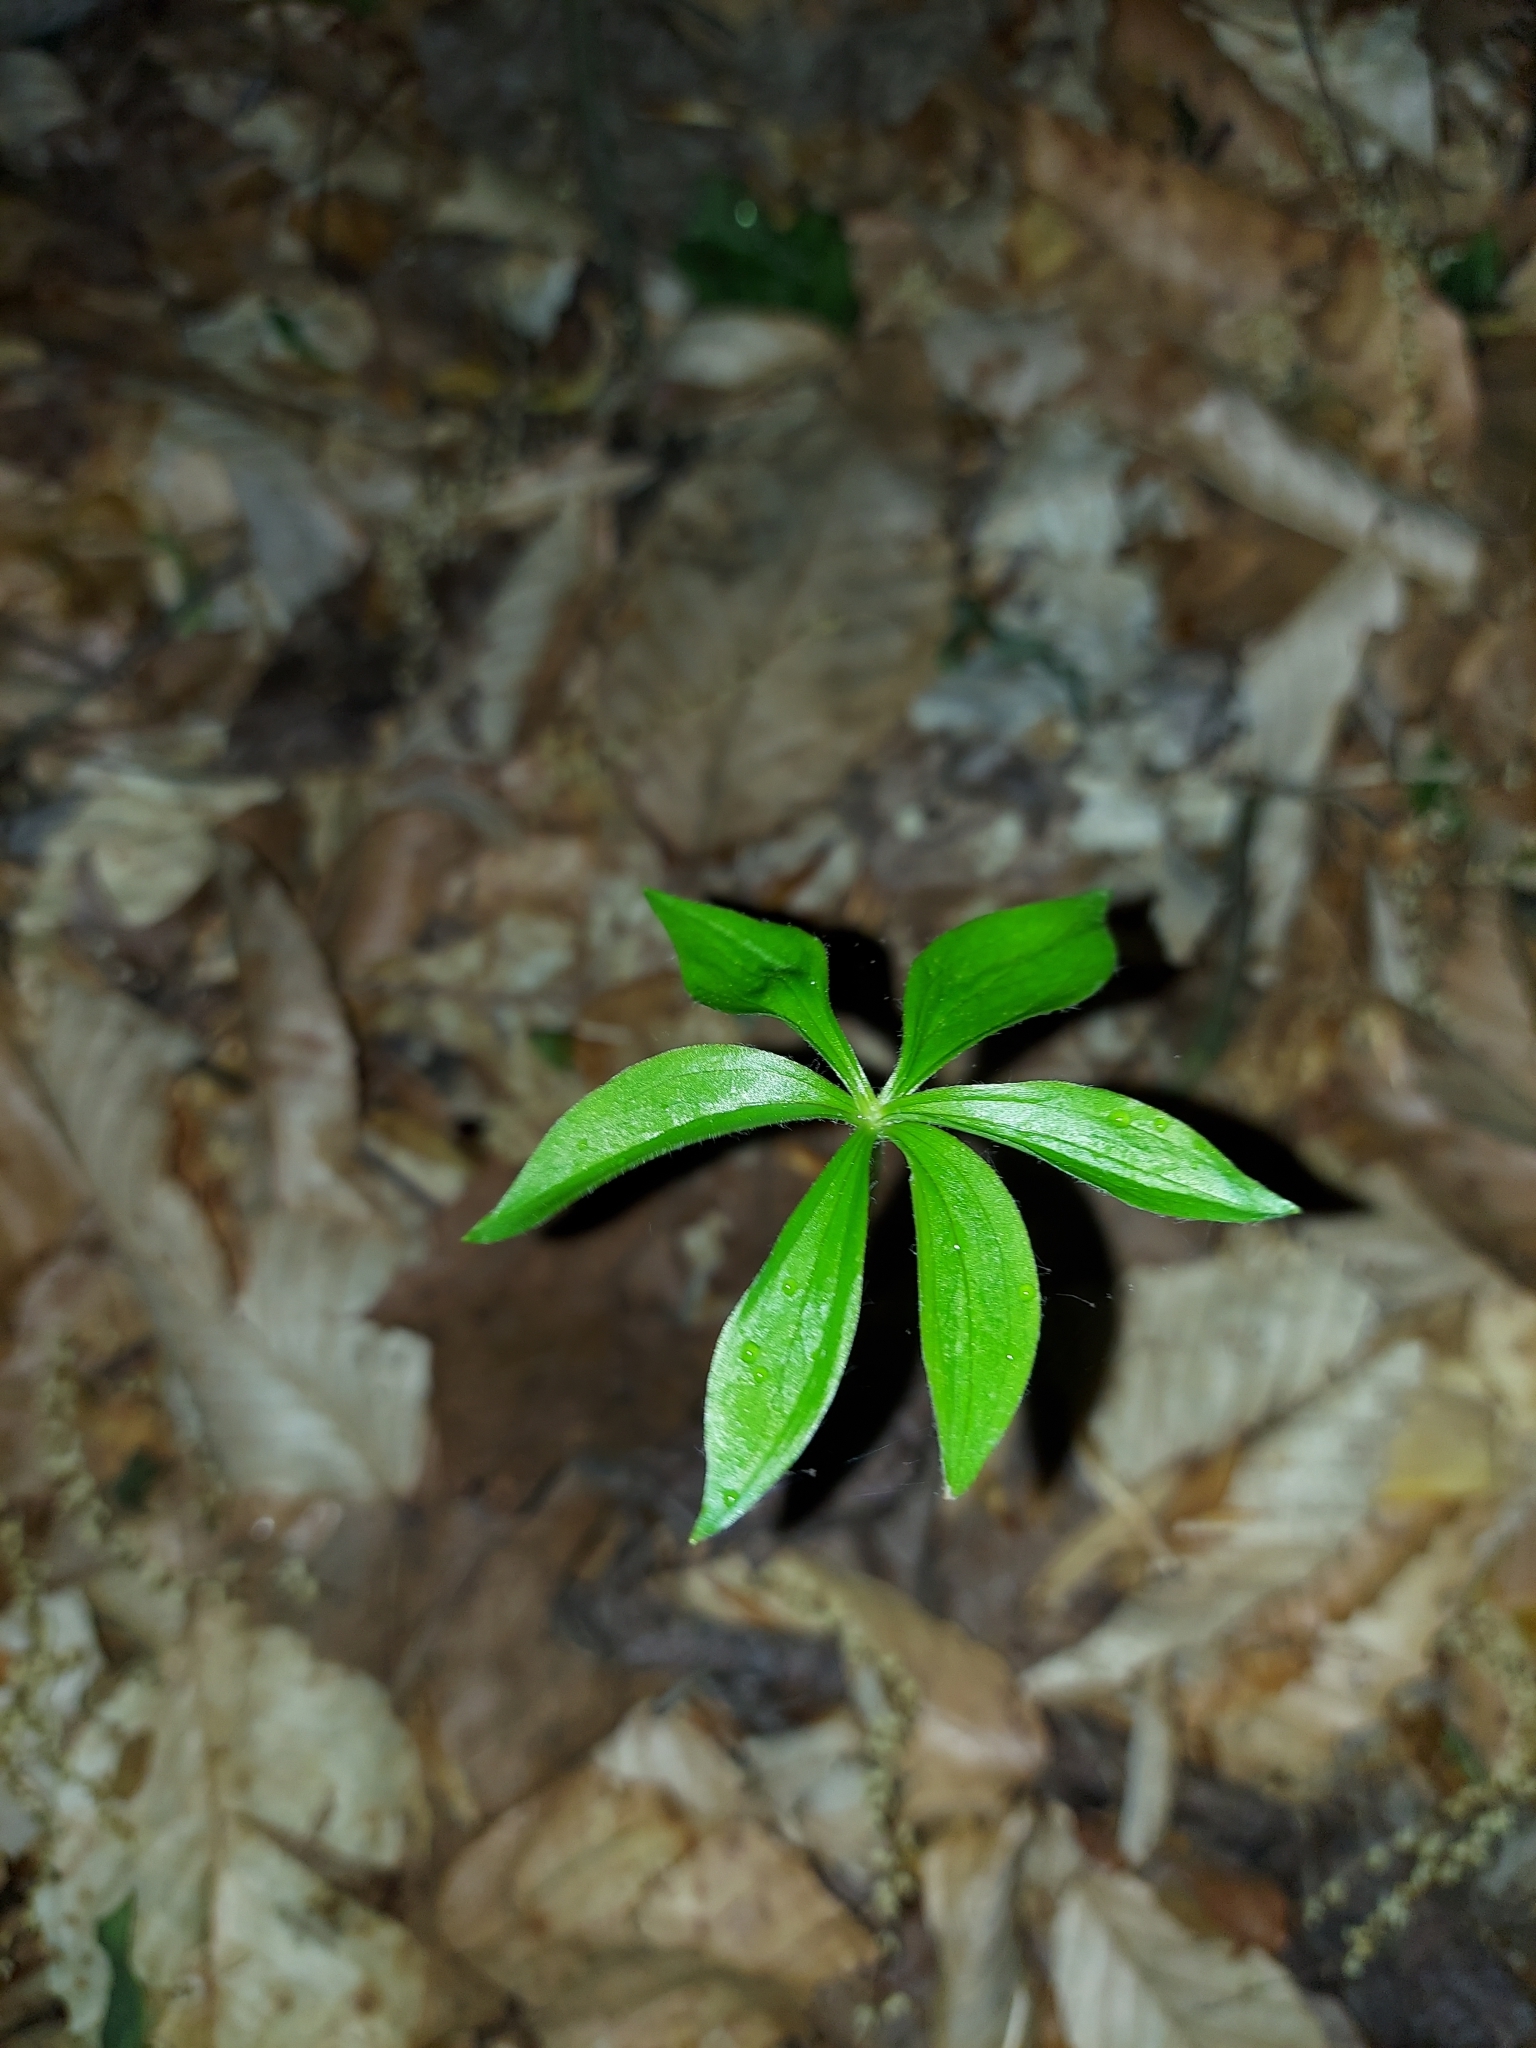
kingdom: Plantae
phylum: Tracheophyta
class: Liliopsida
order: Liliales
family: Liliaceae
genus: Medeola
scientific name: Medeola virginiana
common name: Indian cucumber-root
